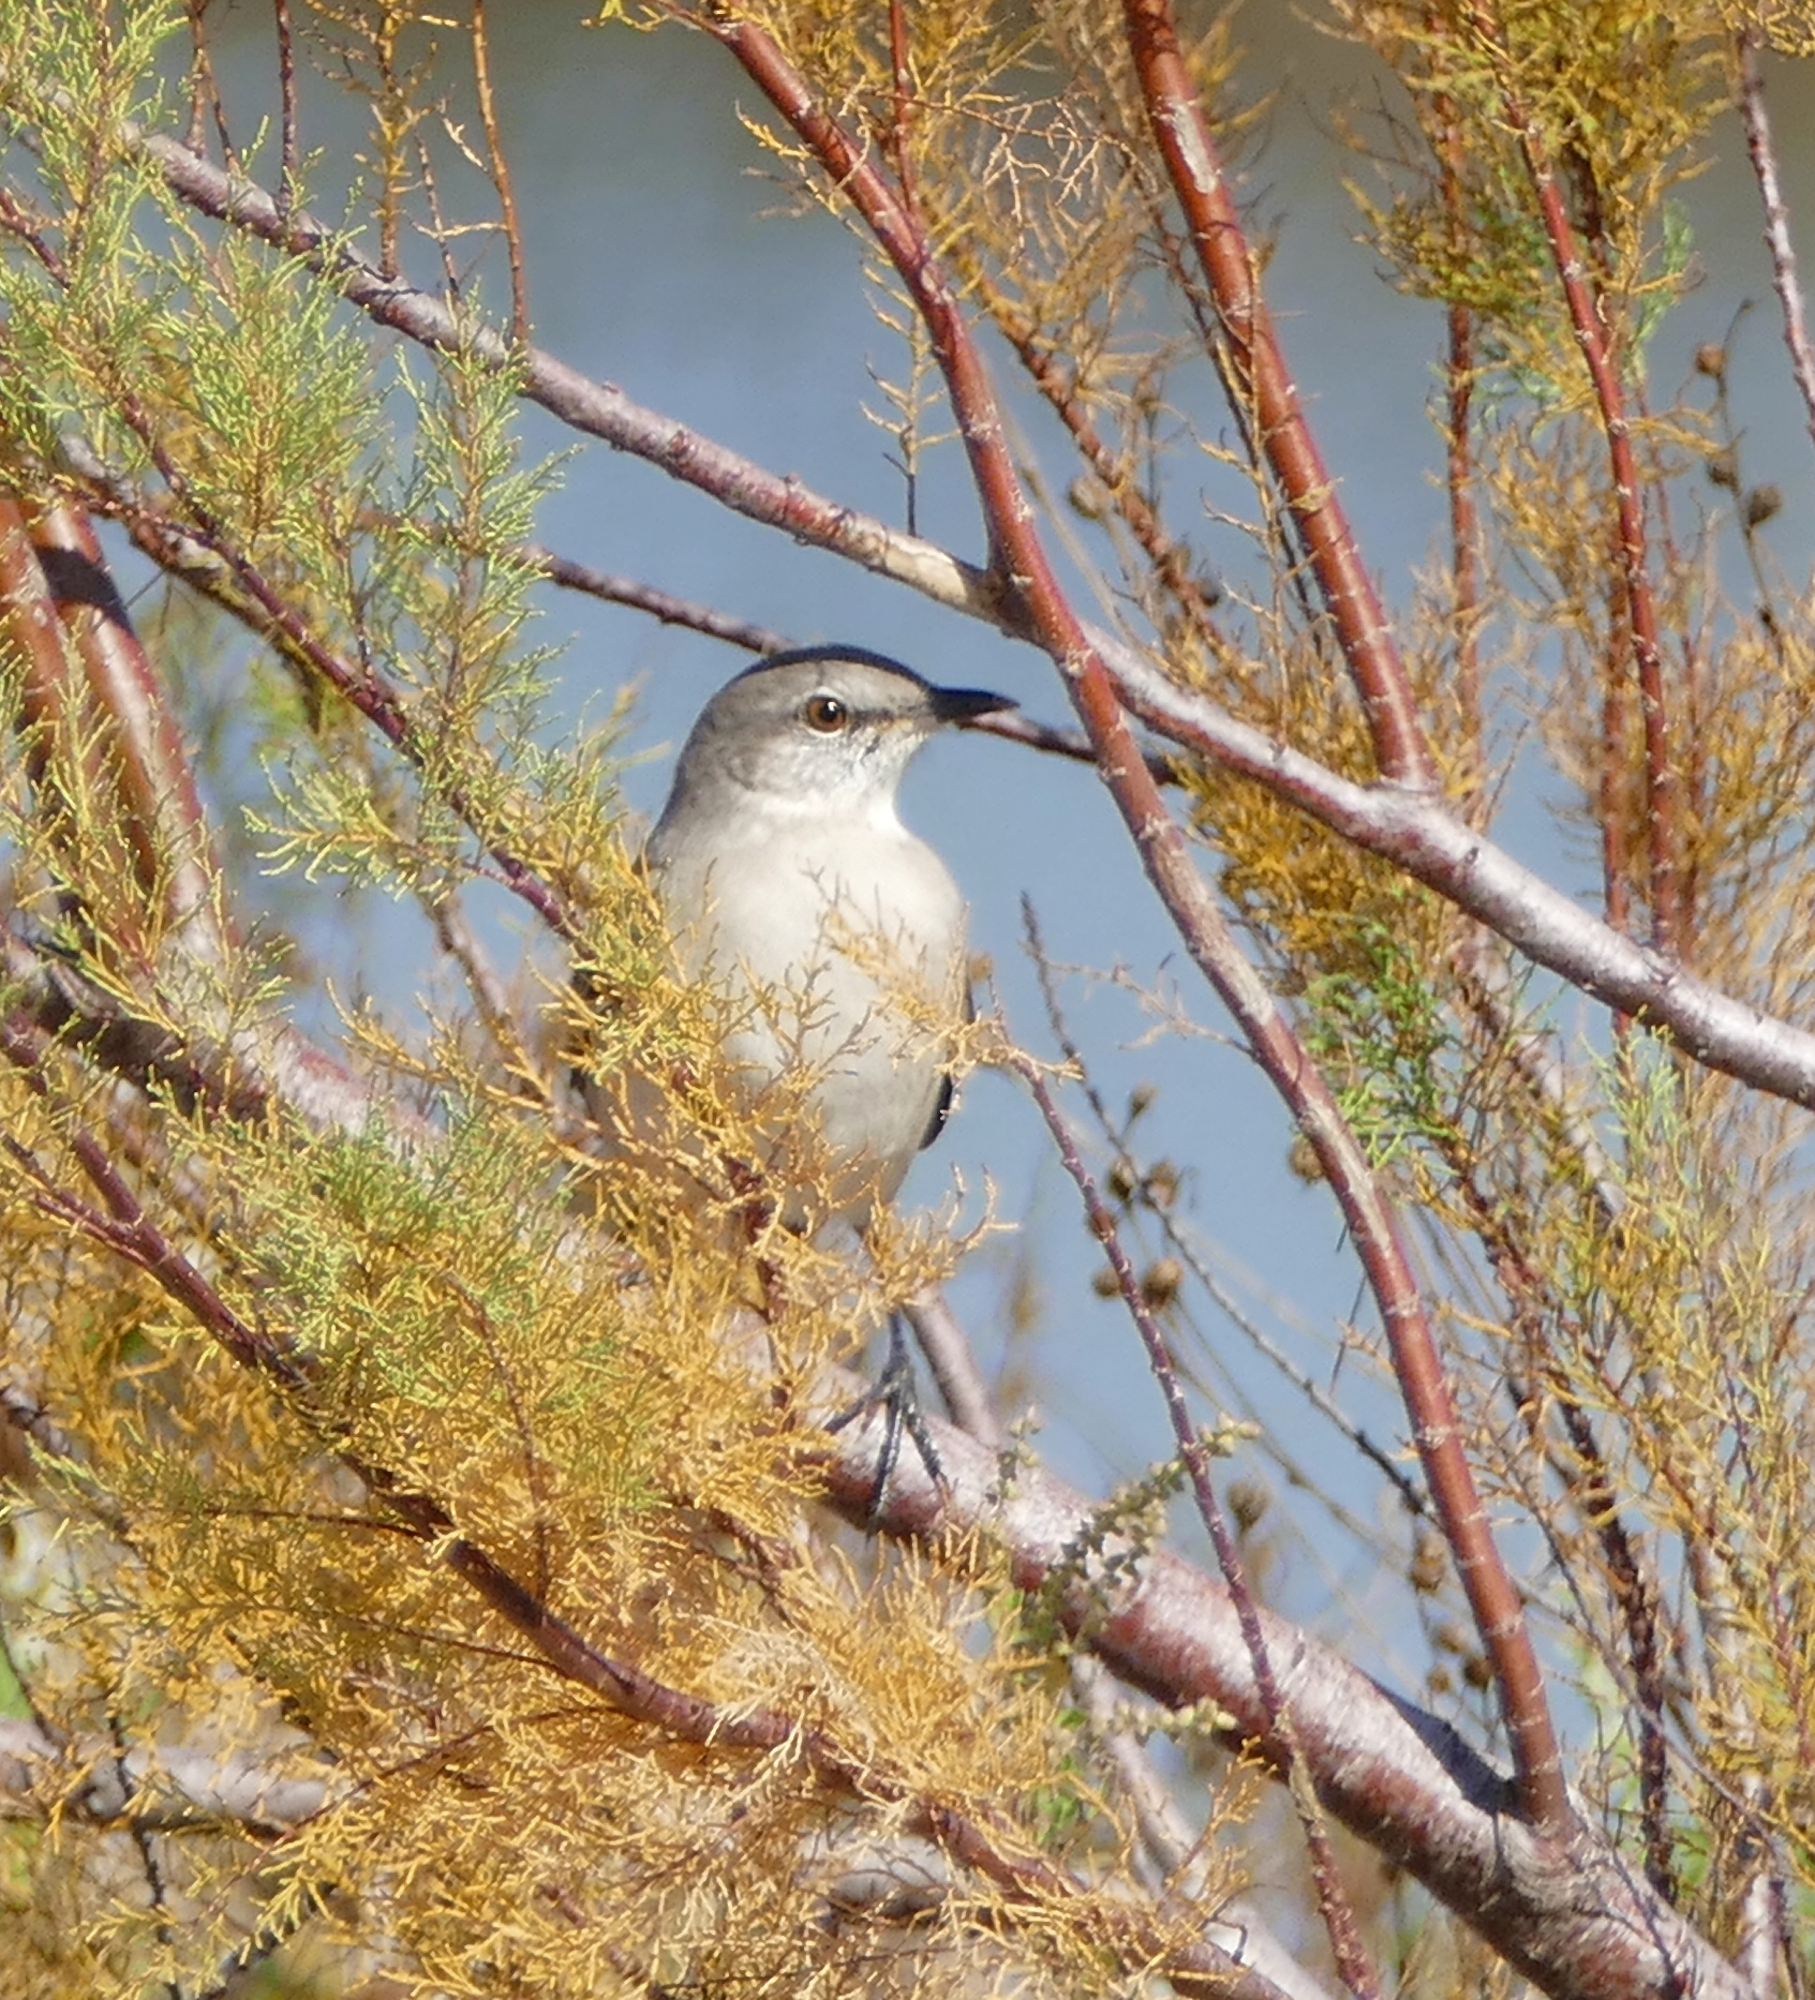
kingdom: Animalia
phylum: Chordata
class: Aves
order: Passeriformes
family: Mimidae
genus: Mimus
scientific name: Mimus polyglottos
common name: Northern mockingbird
